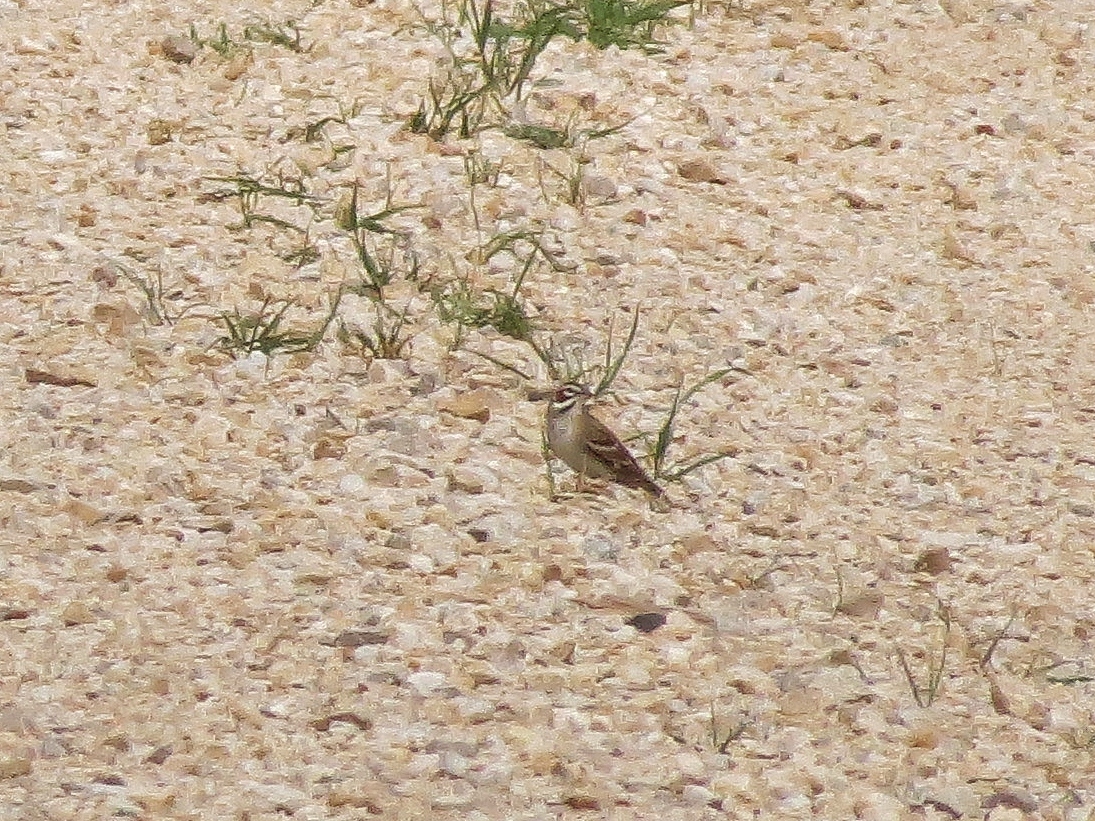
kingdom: Animalia
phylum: Chordata
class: Aves
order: Passeriformes
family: Passerellidae
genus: Chondestes
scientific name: Chondestes grammacus
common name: Lark sparrow
